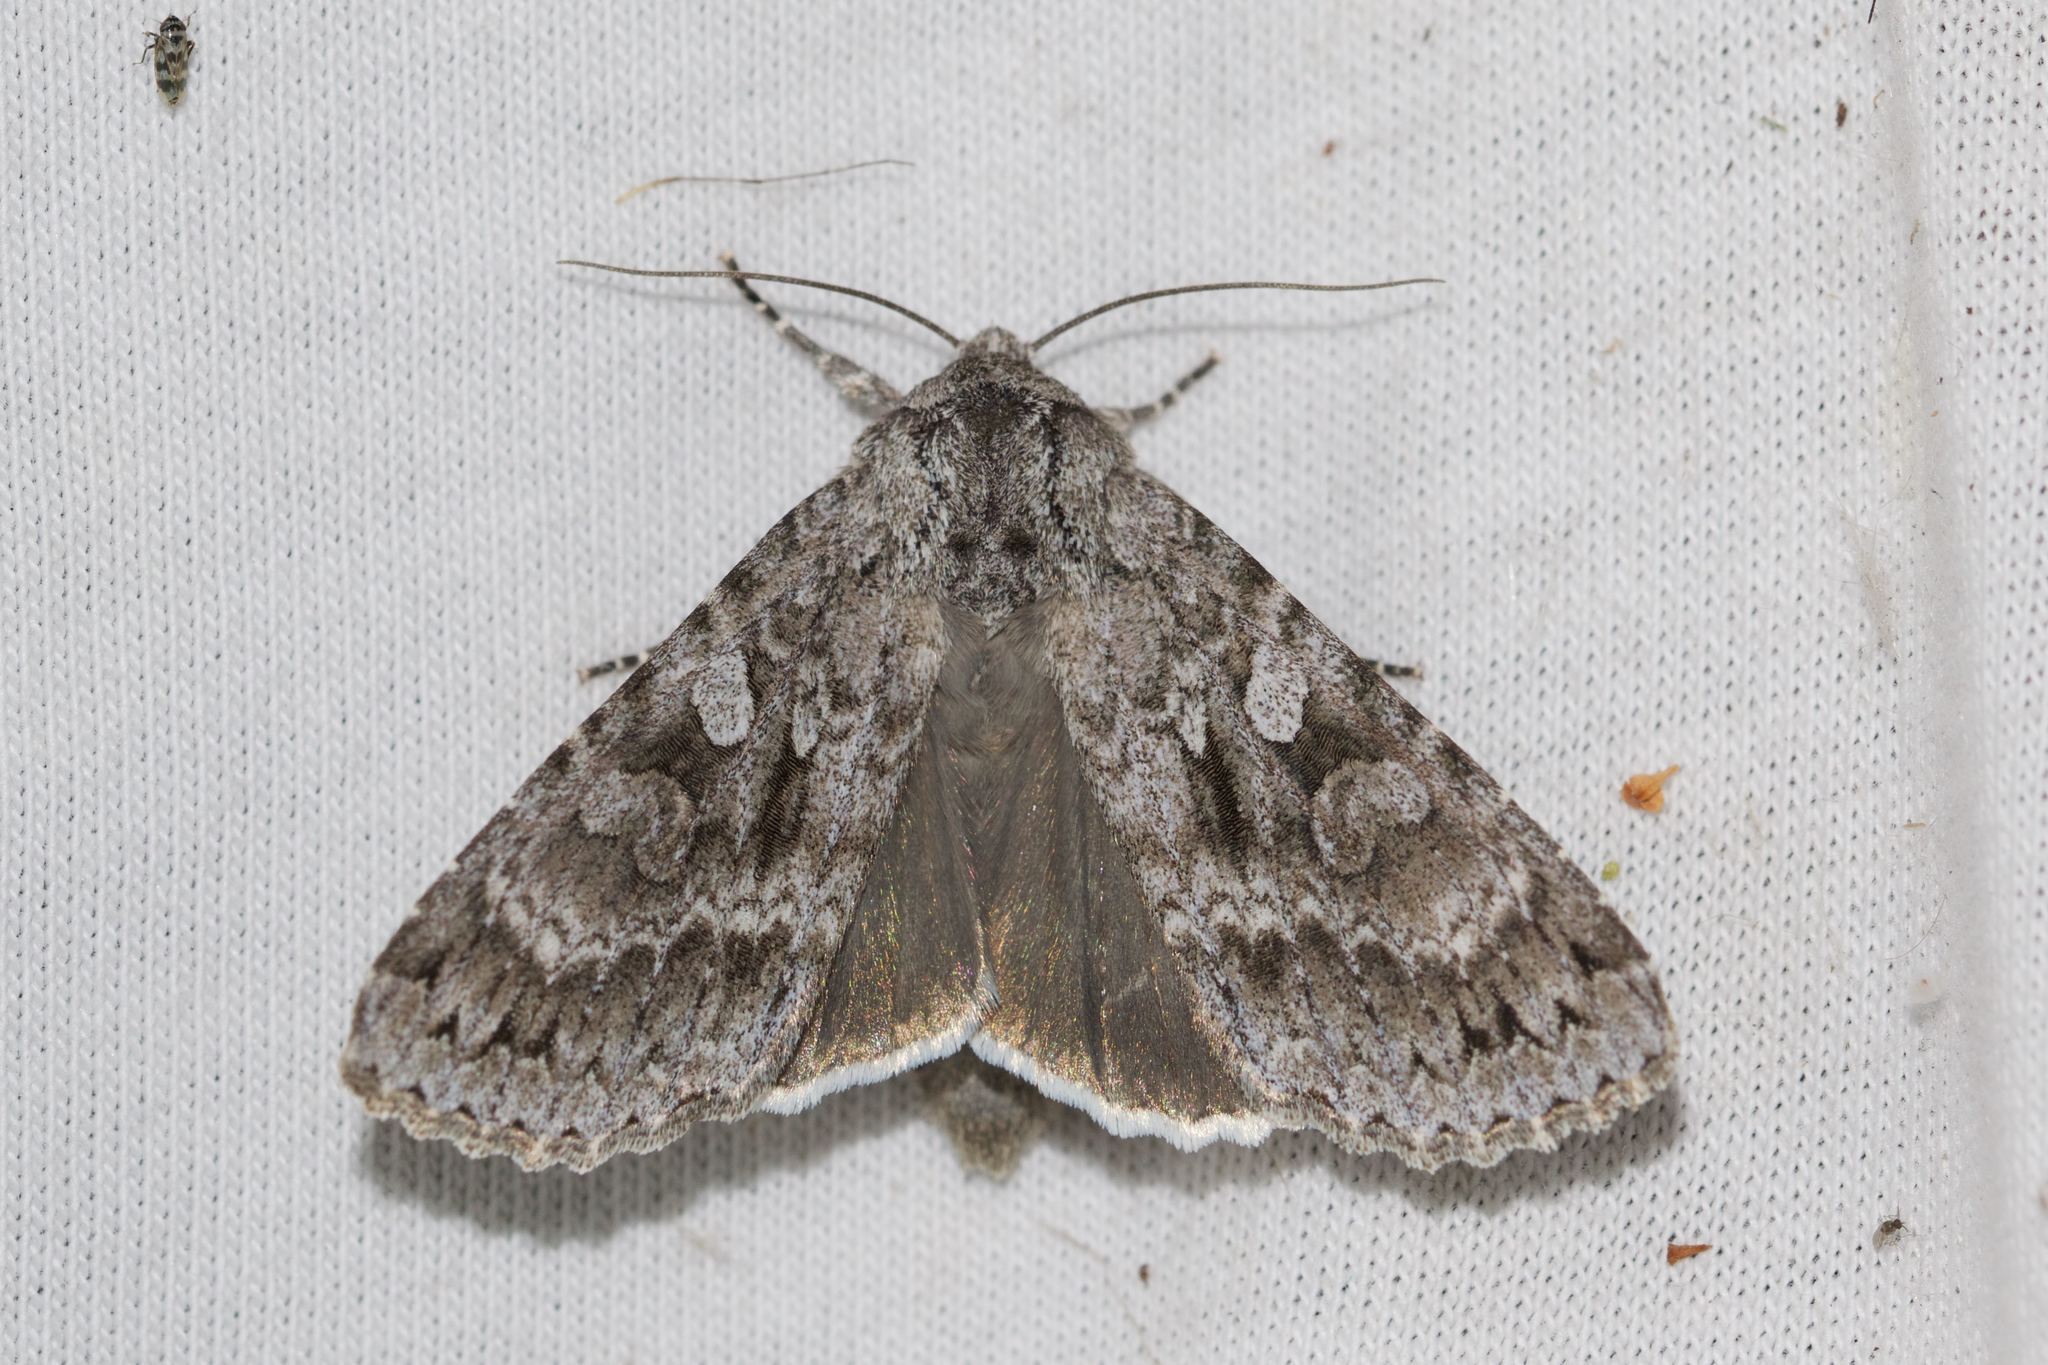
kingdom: Animalia
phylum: Arthropoda
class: Insecta
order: Lepidoptera
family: Noctuidae
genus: Eurois
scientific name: Eurois occulta
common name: Great brocade
